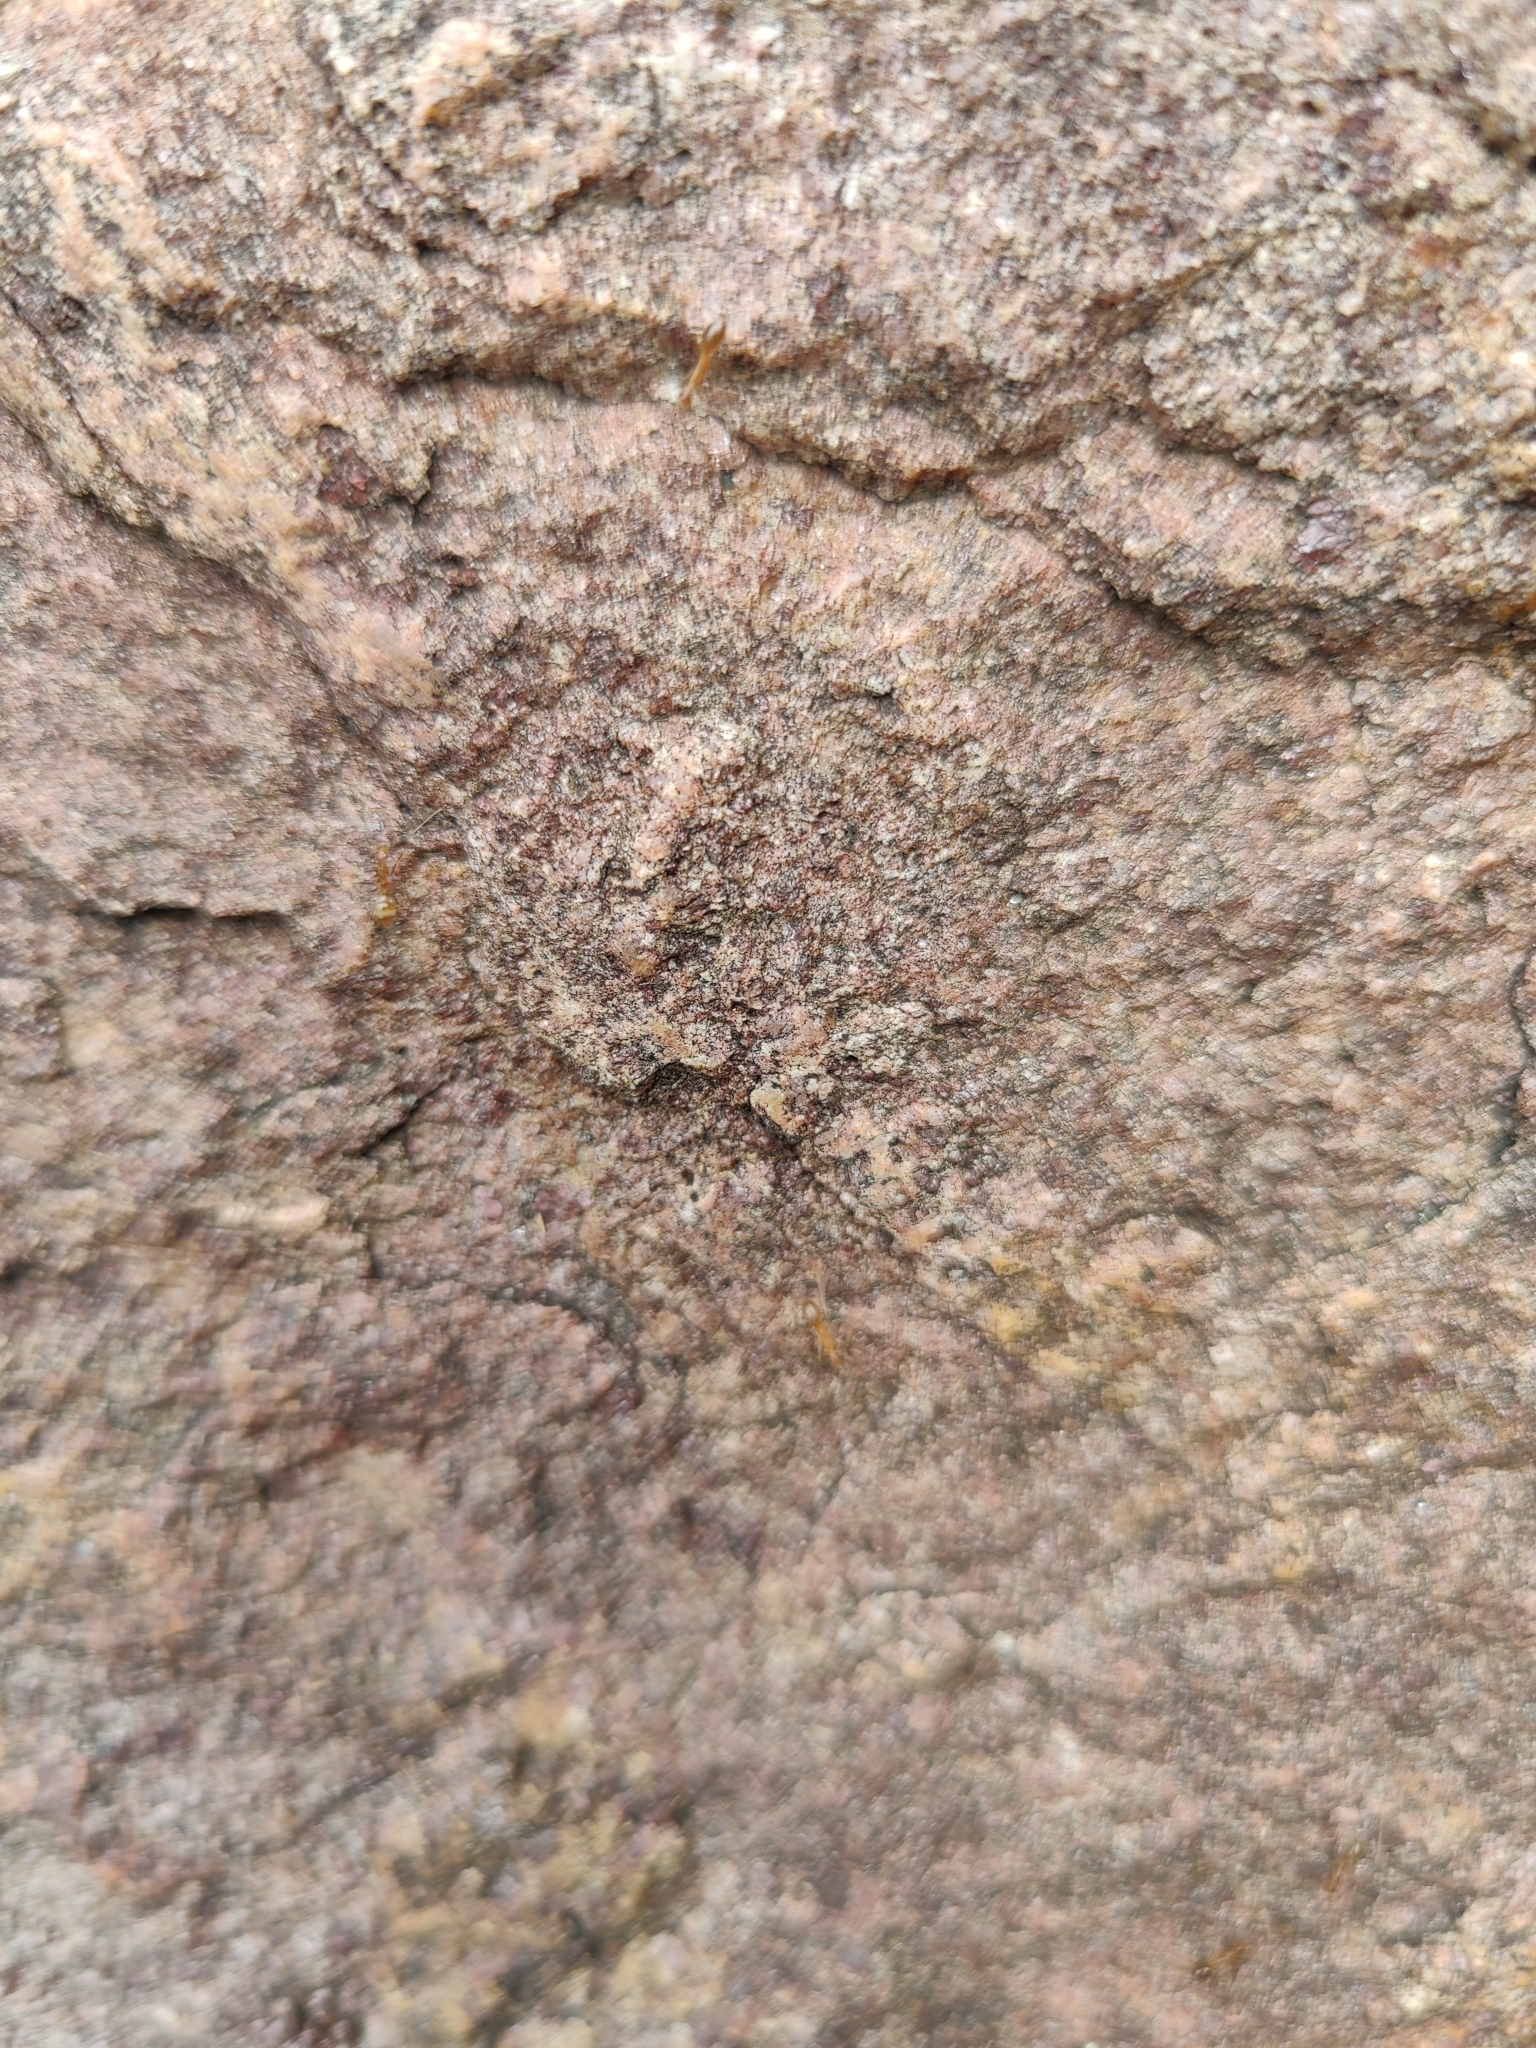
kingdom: Animalia
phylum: Arthropoda
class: Insecta
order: Hymenoptera
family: Formicidae
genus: Anoplolepis
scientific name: Anoplolepis gracilipes
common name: Ant
